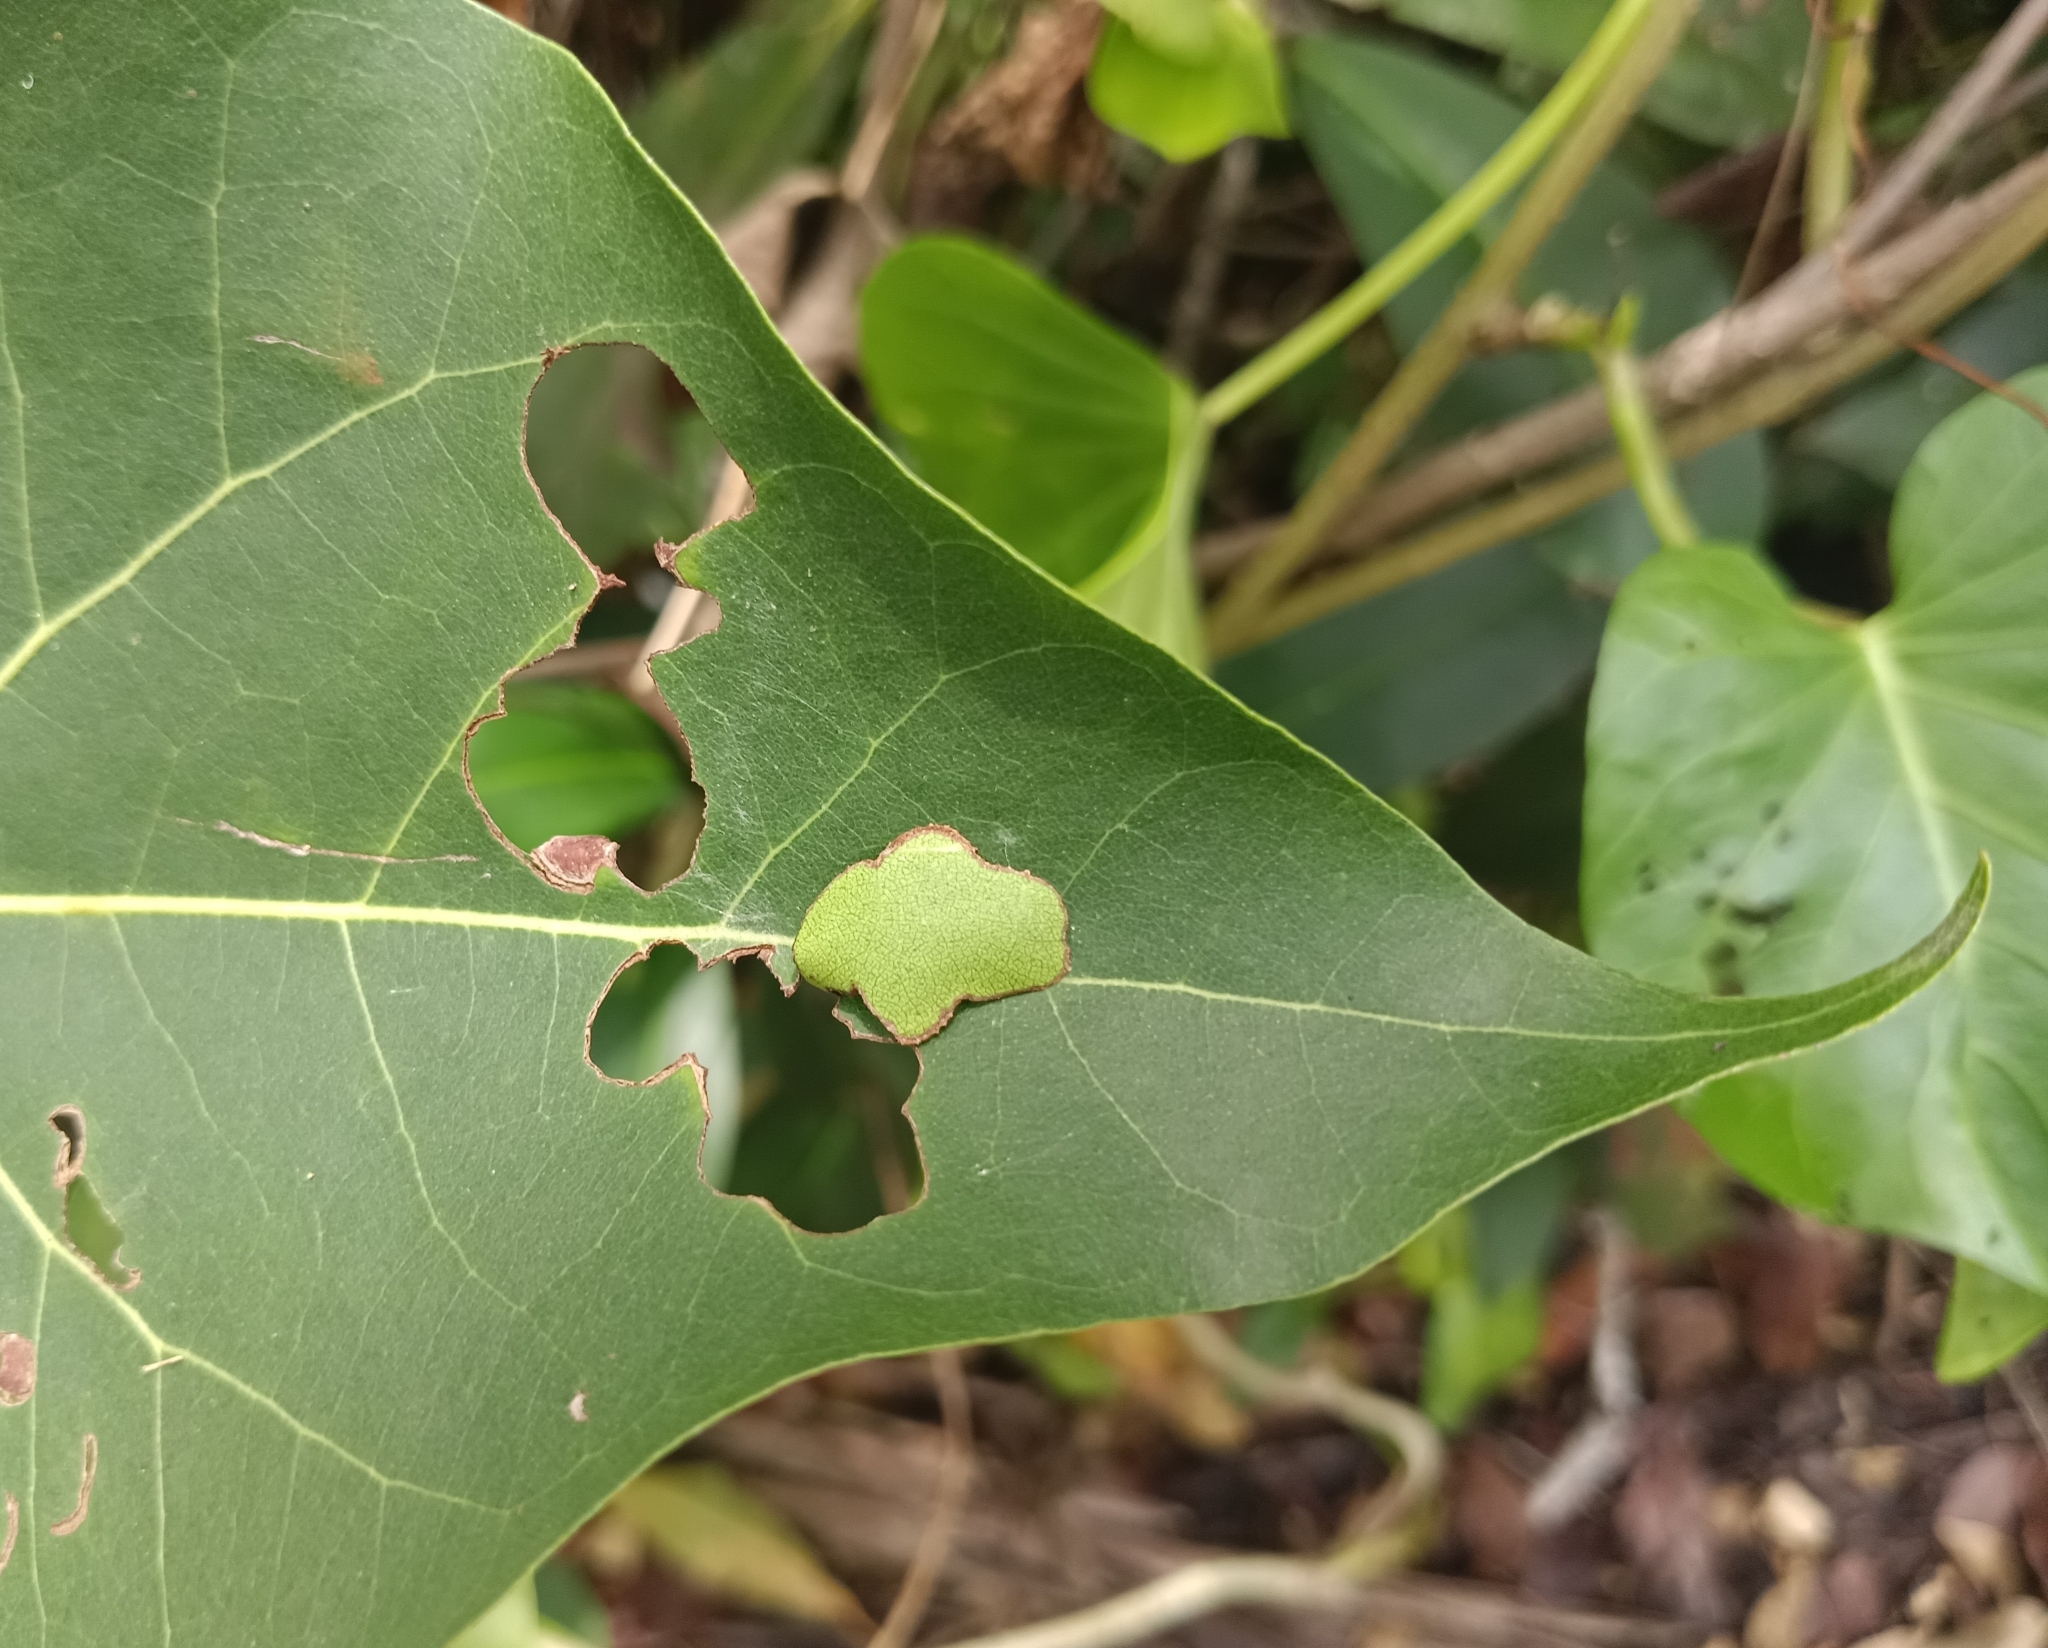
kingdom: Animalia
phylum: Arthropoda
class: Insecta
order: Lepidoptera
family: Hesperiidae
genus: Coladenia
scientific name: Coladenia
